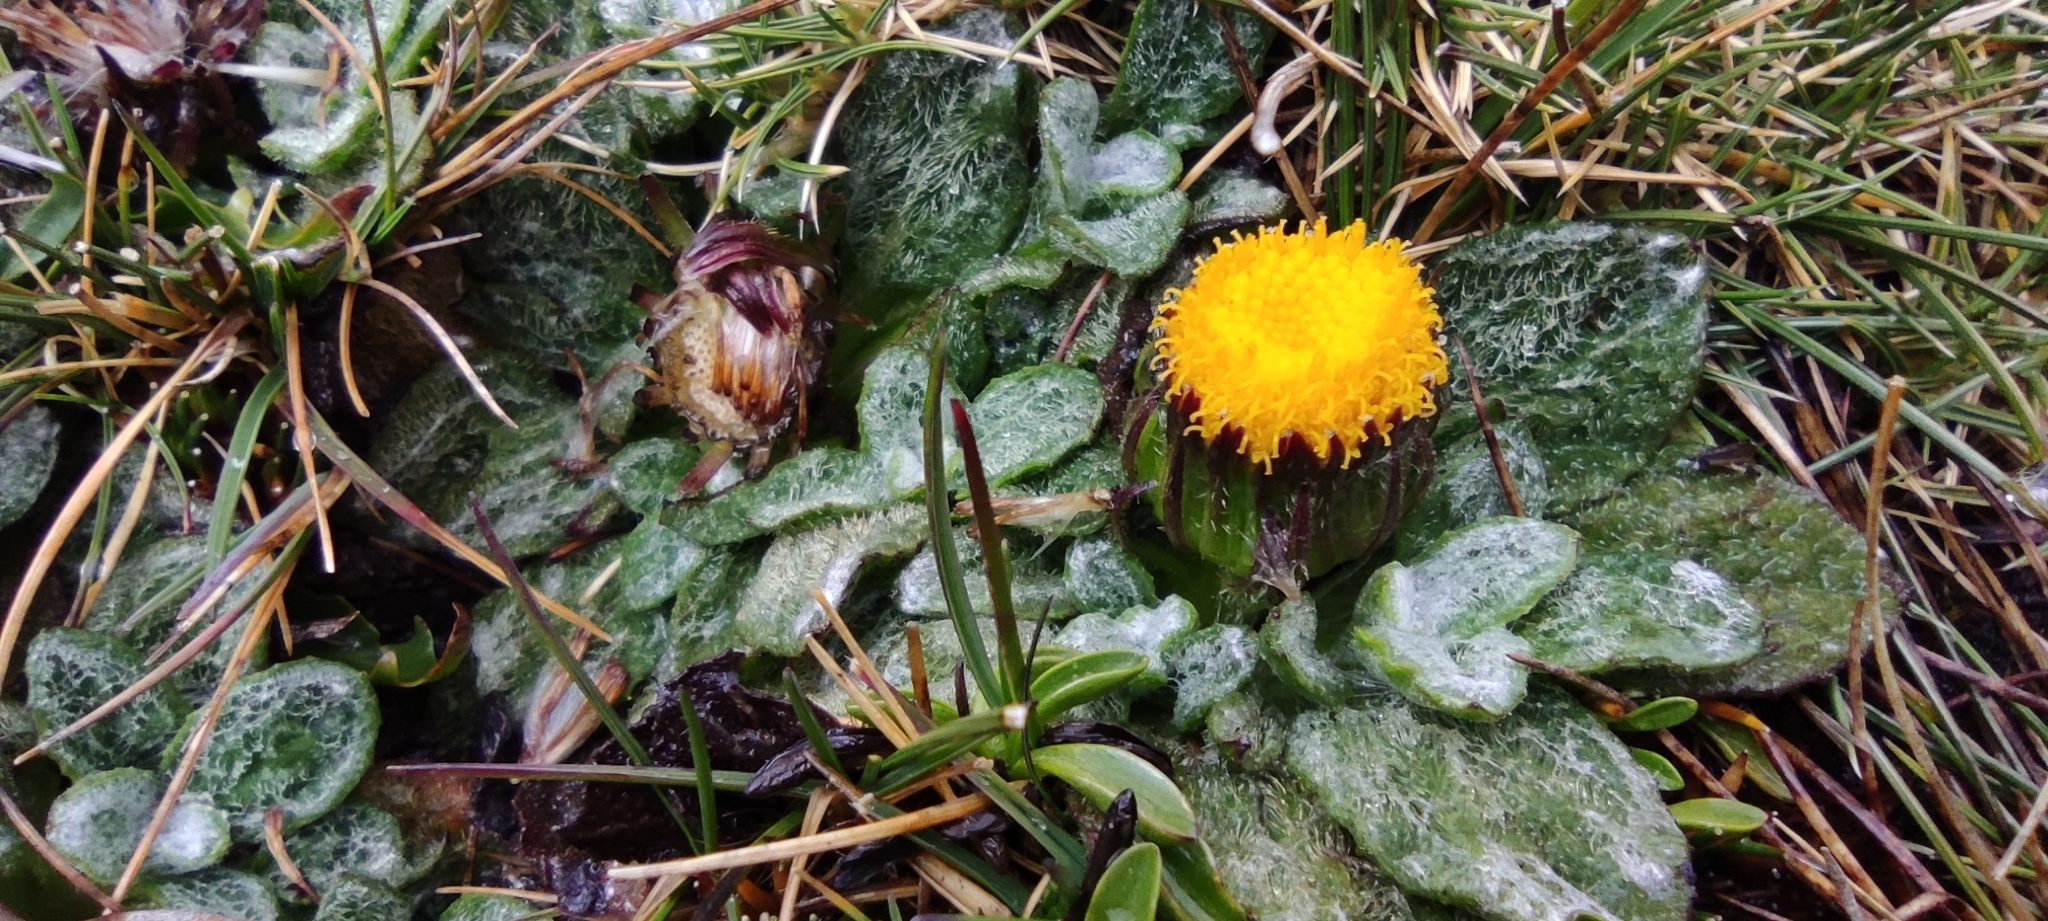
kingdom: Plantae
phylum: Tracheophyta
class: Magnoliopsida
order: Asterales
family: Asteraceae
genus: Senecio
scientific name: Senecio expansus
